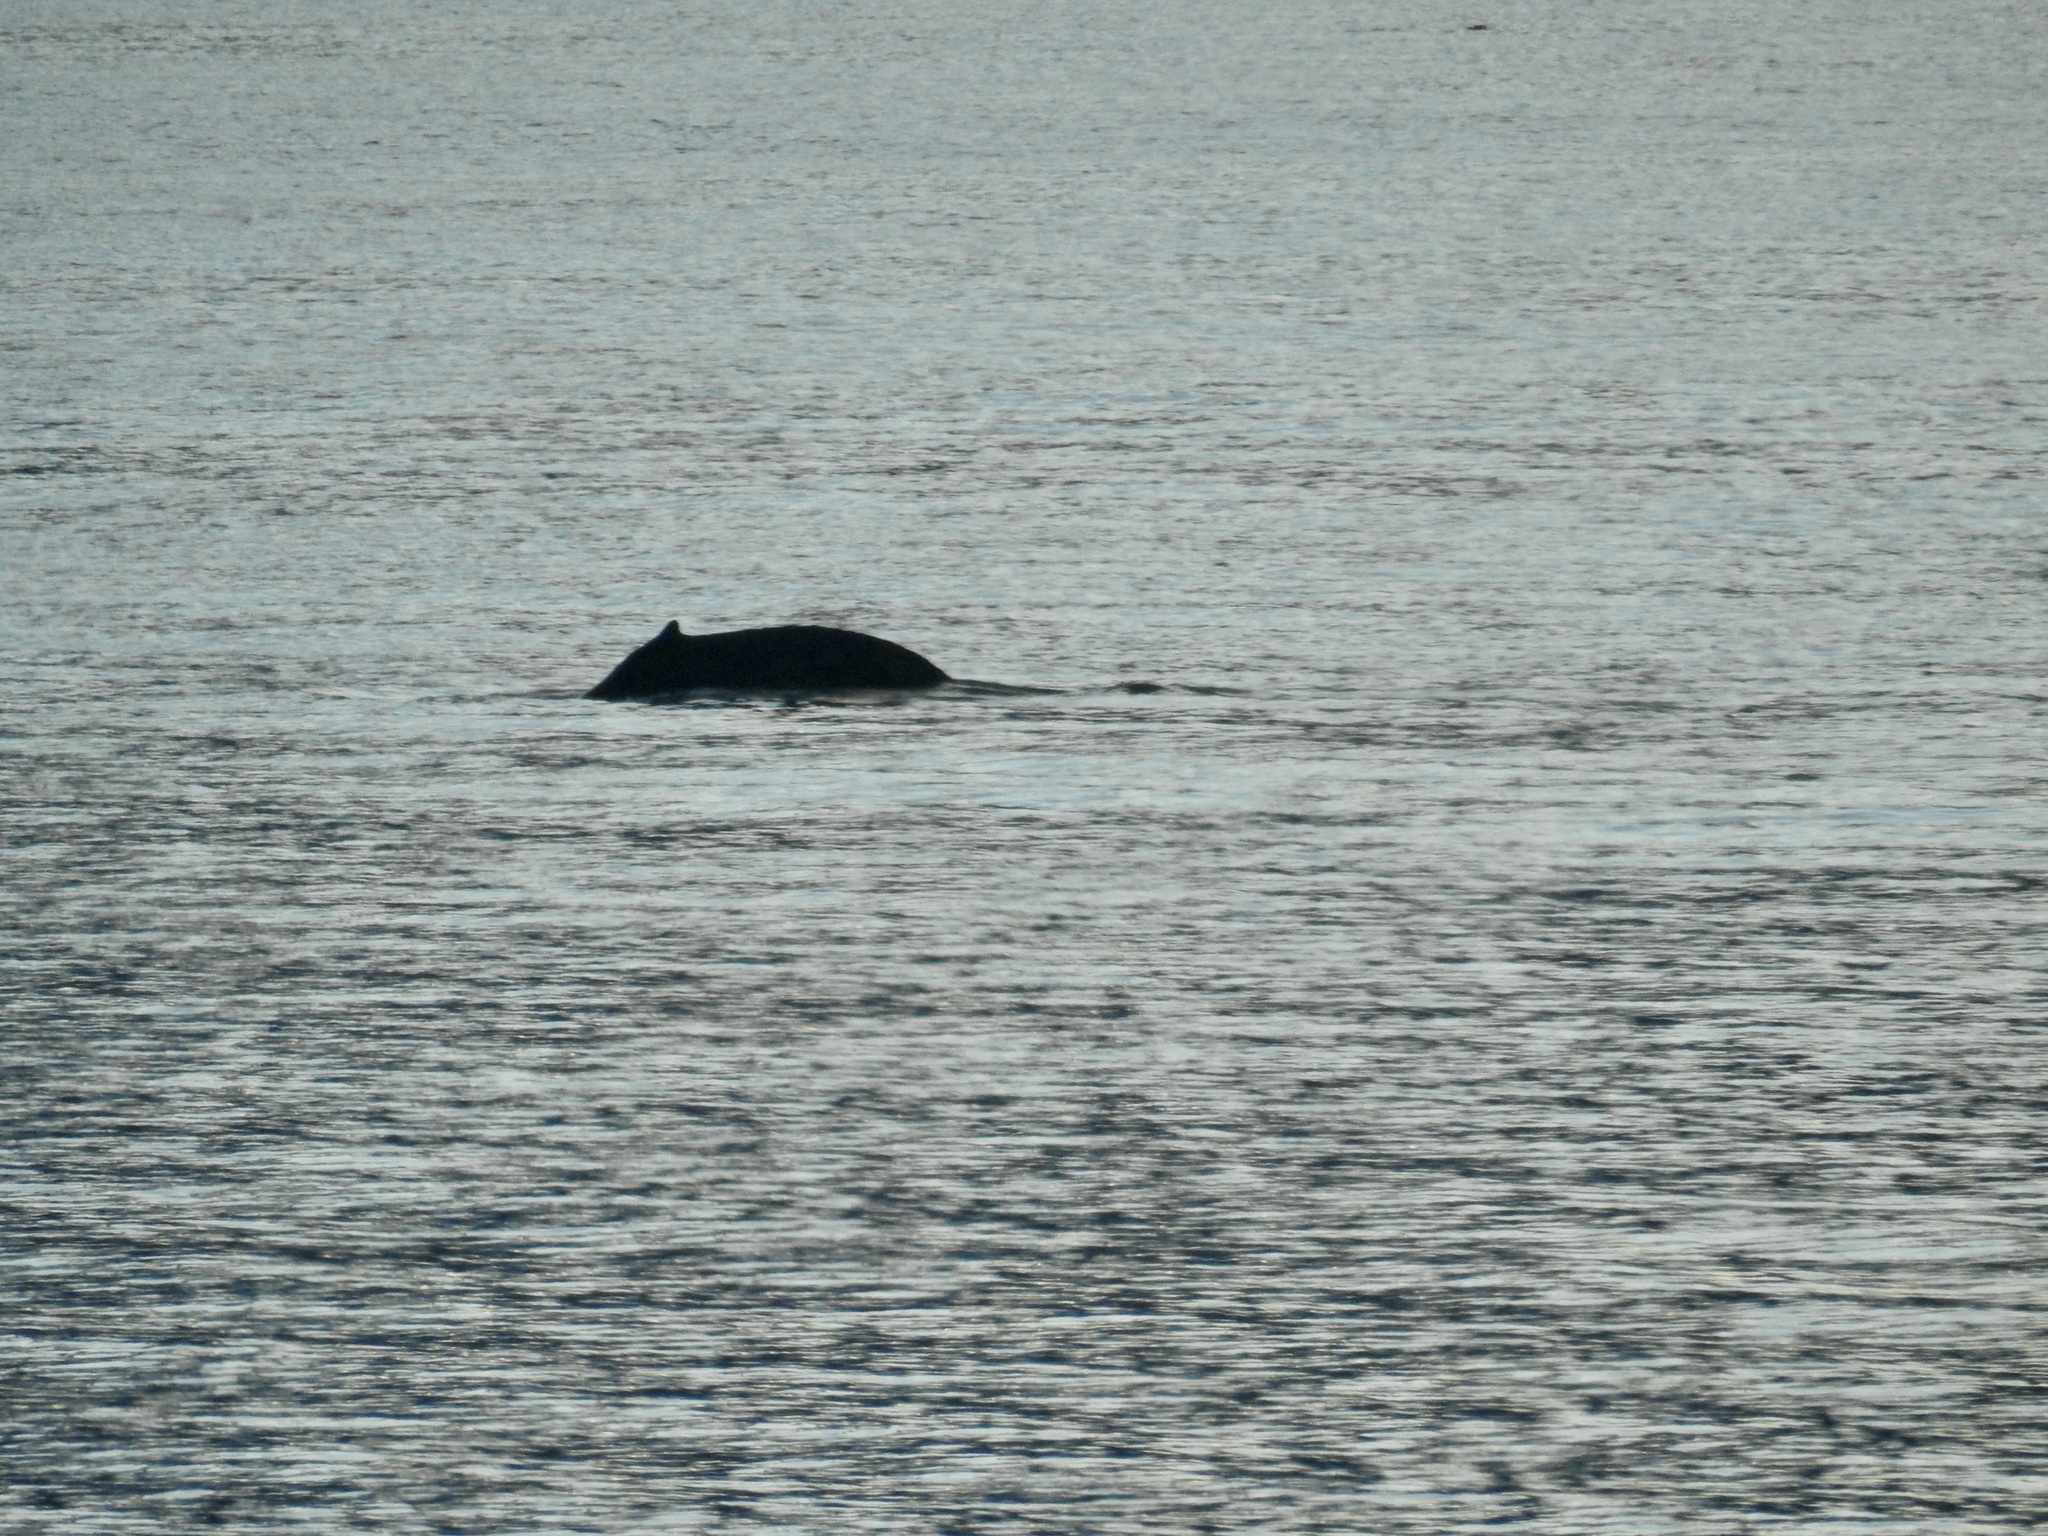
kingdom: Animalia
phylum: Chordata
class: Mammalia
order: Cetacea
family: Balaenopteridae
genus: Megaptera
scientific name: Megaptera novaeangliae
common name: Humpback whale
